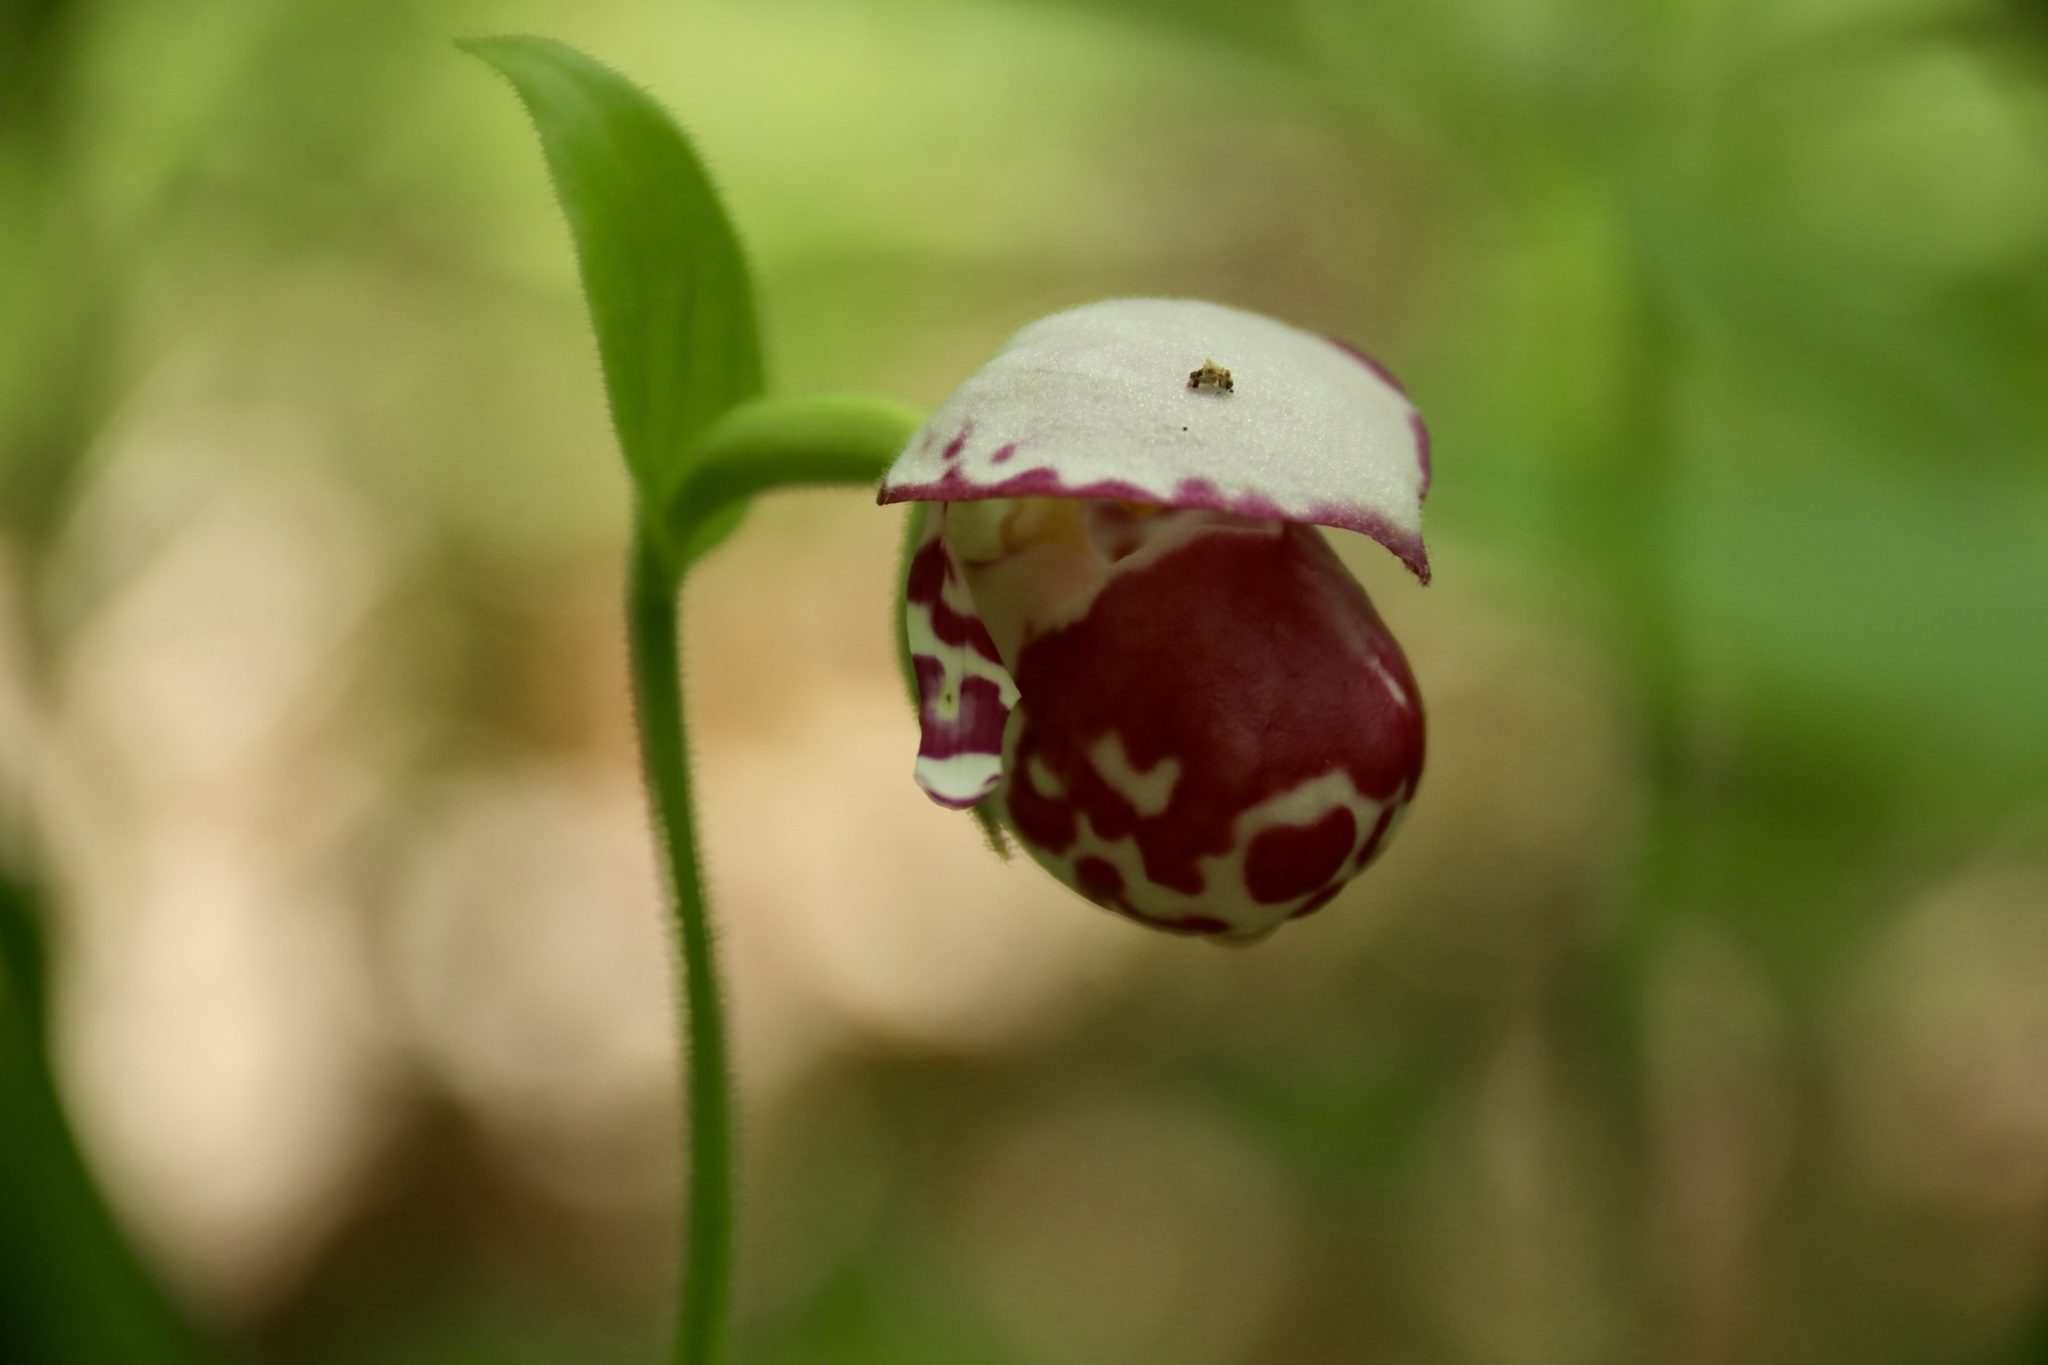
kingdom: Plantae
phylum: Tracheophyta
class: Liliopsida
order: Asparagales
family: Orchidaceae
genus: Cypripedium
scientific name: Cypripedium guttatum
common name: Pink lady slipper
